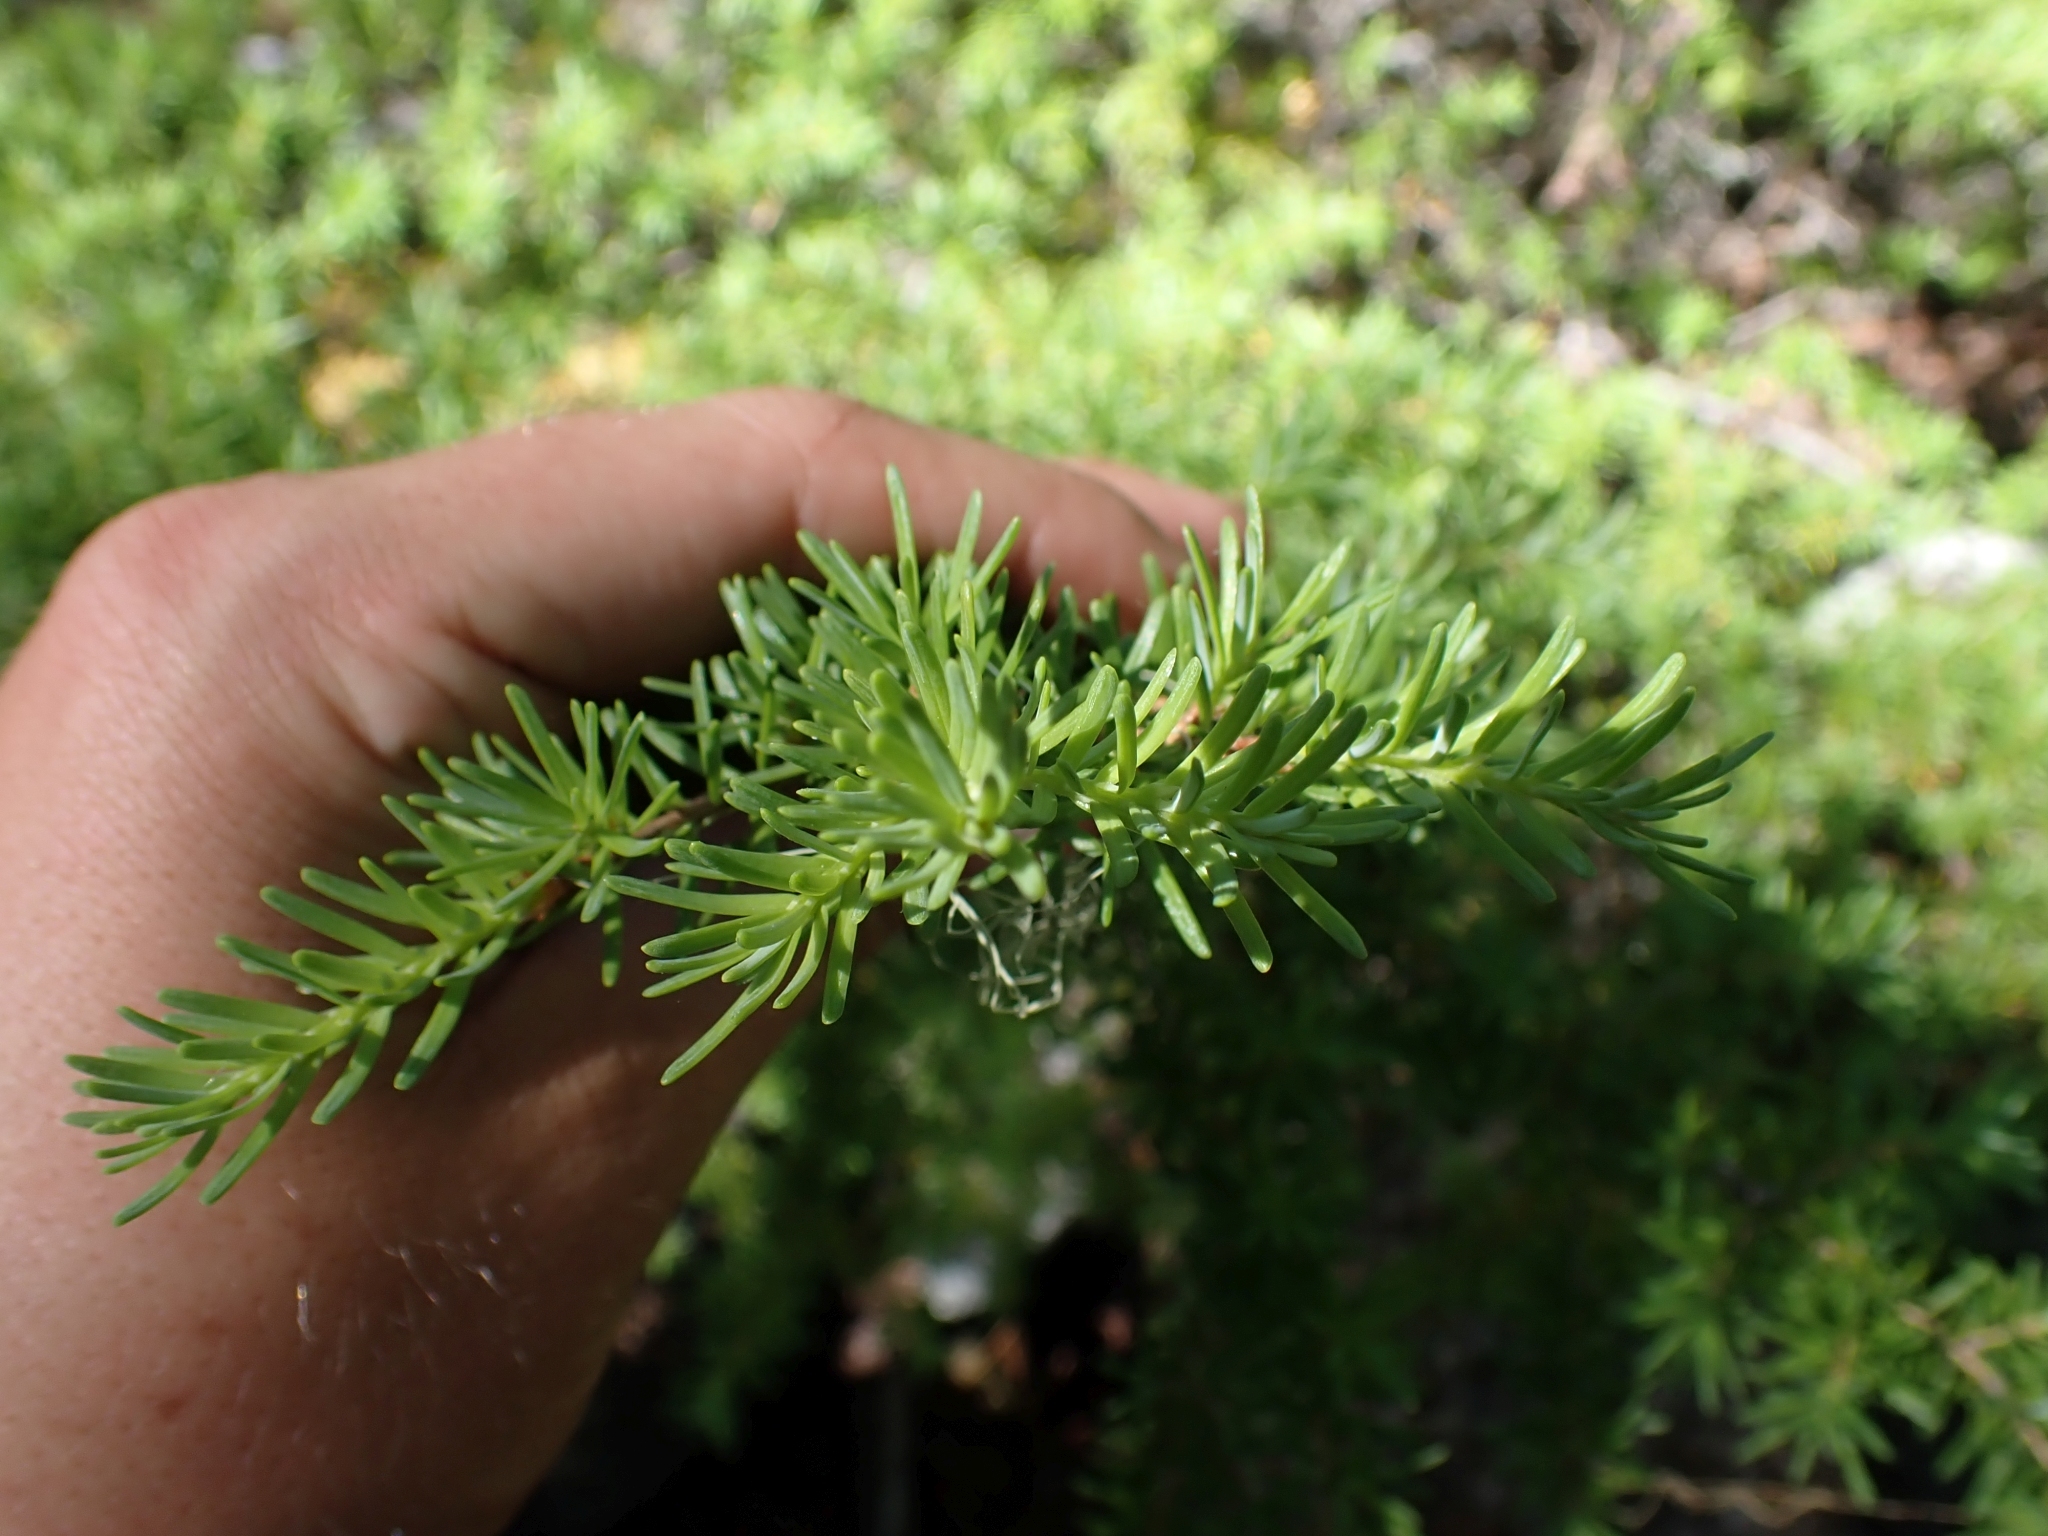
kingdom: Plantae
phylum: Tracheophyta
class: Pinopsida
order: Pinales
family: Pinaceae
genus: Tsuga
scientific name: Tsuga mertensiana
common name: Mountain hemlock
